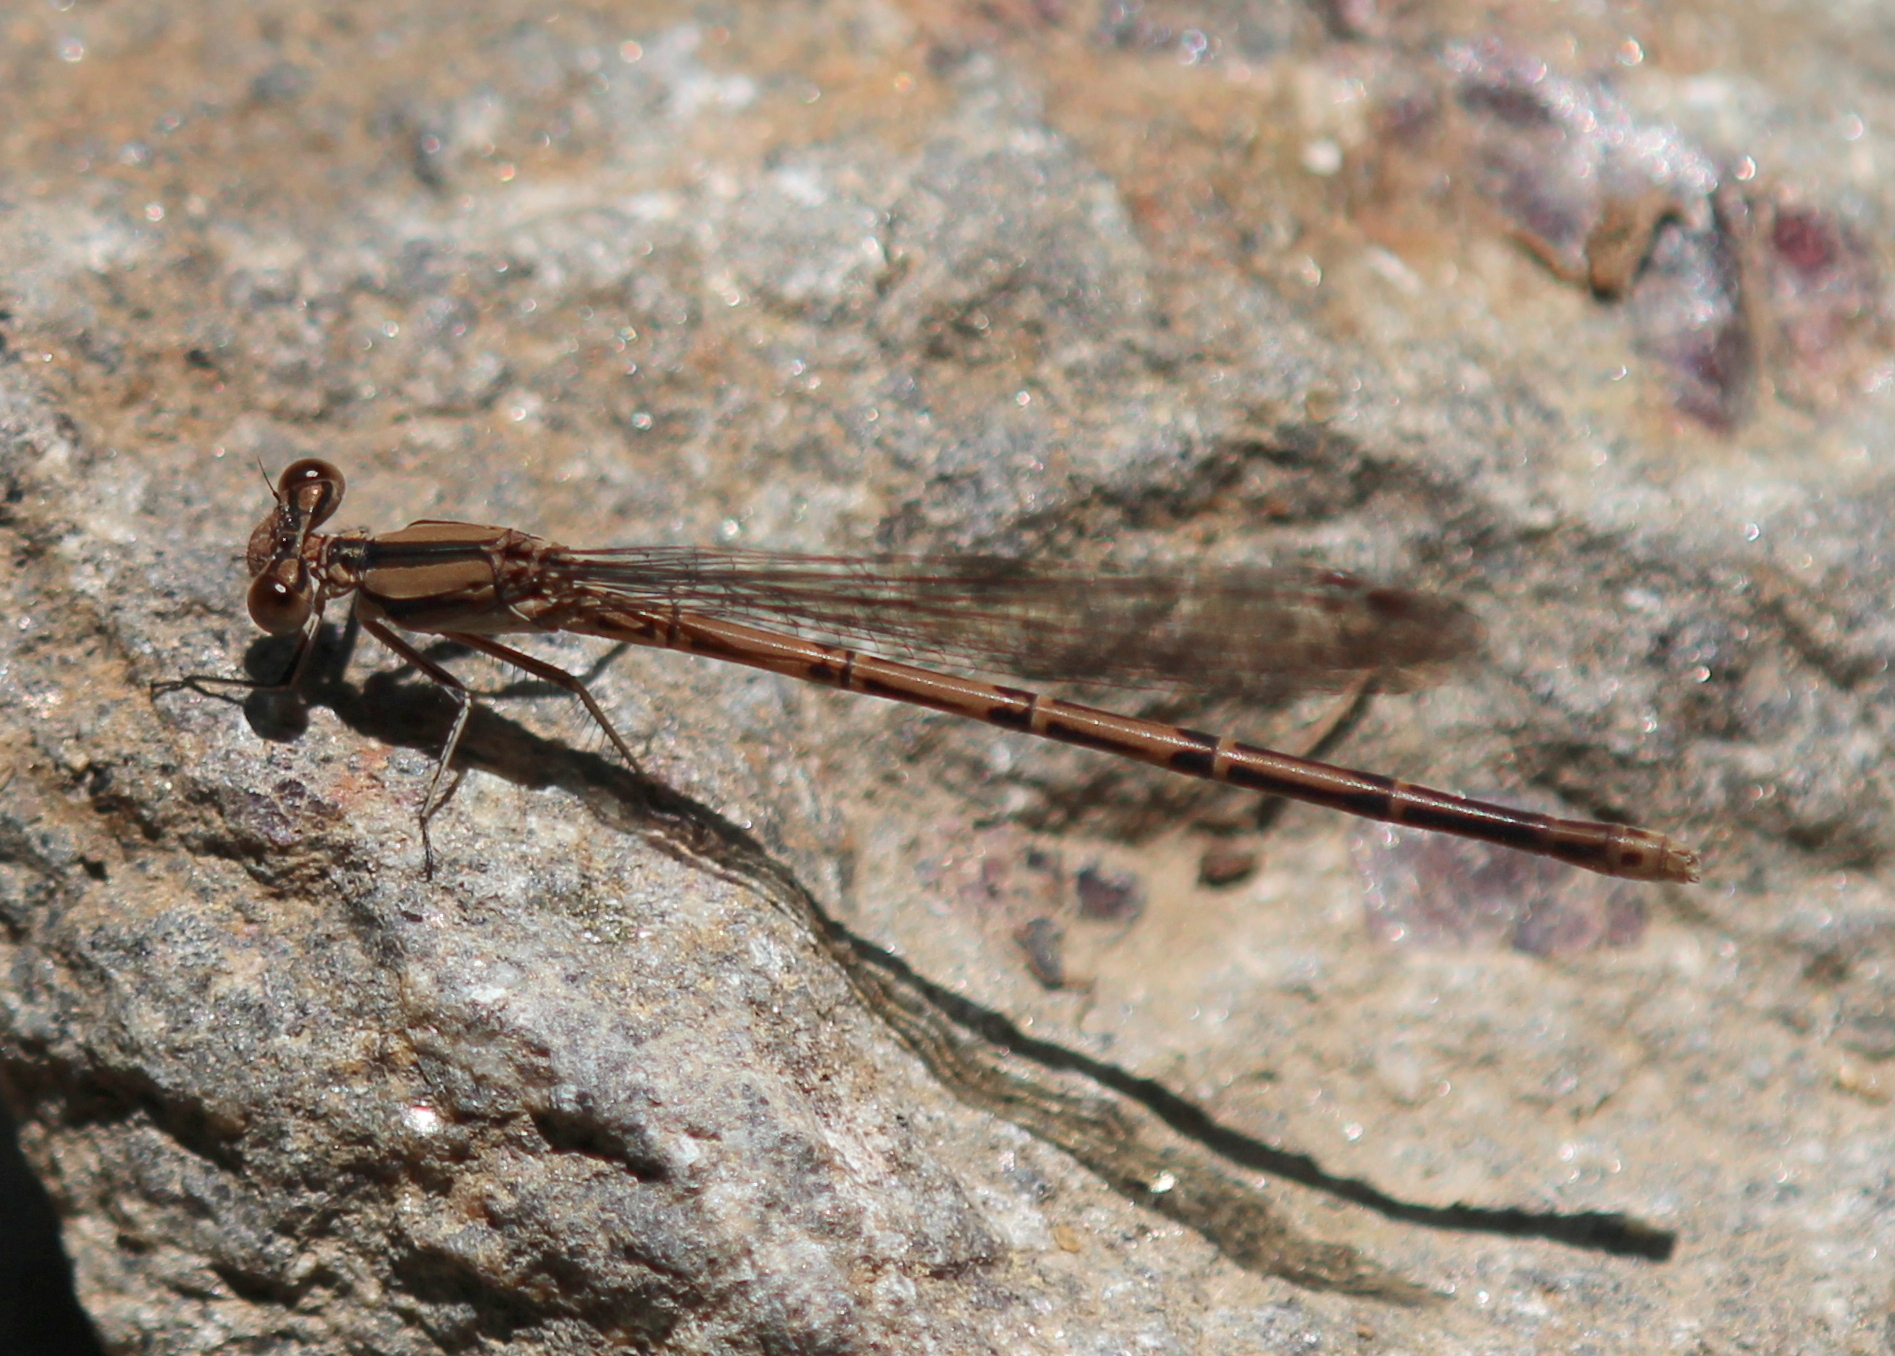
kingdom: Animalia
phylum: Arthropoda
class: Insecta
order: Odonata
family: Coenagrionidae
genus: Argia
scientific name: Argia fumipennis
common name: Variable dancer
